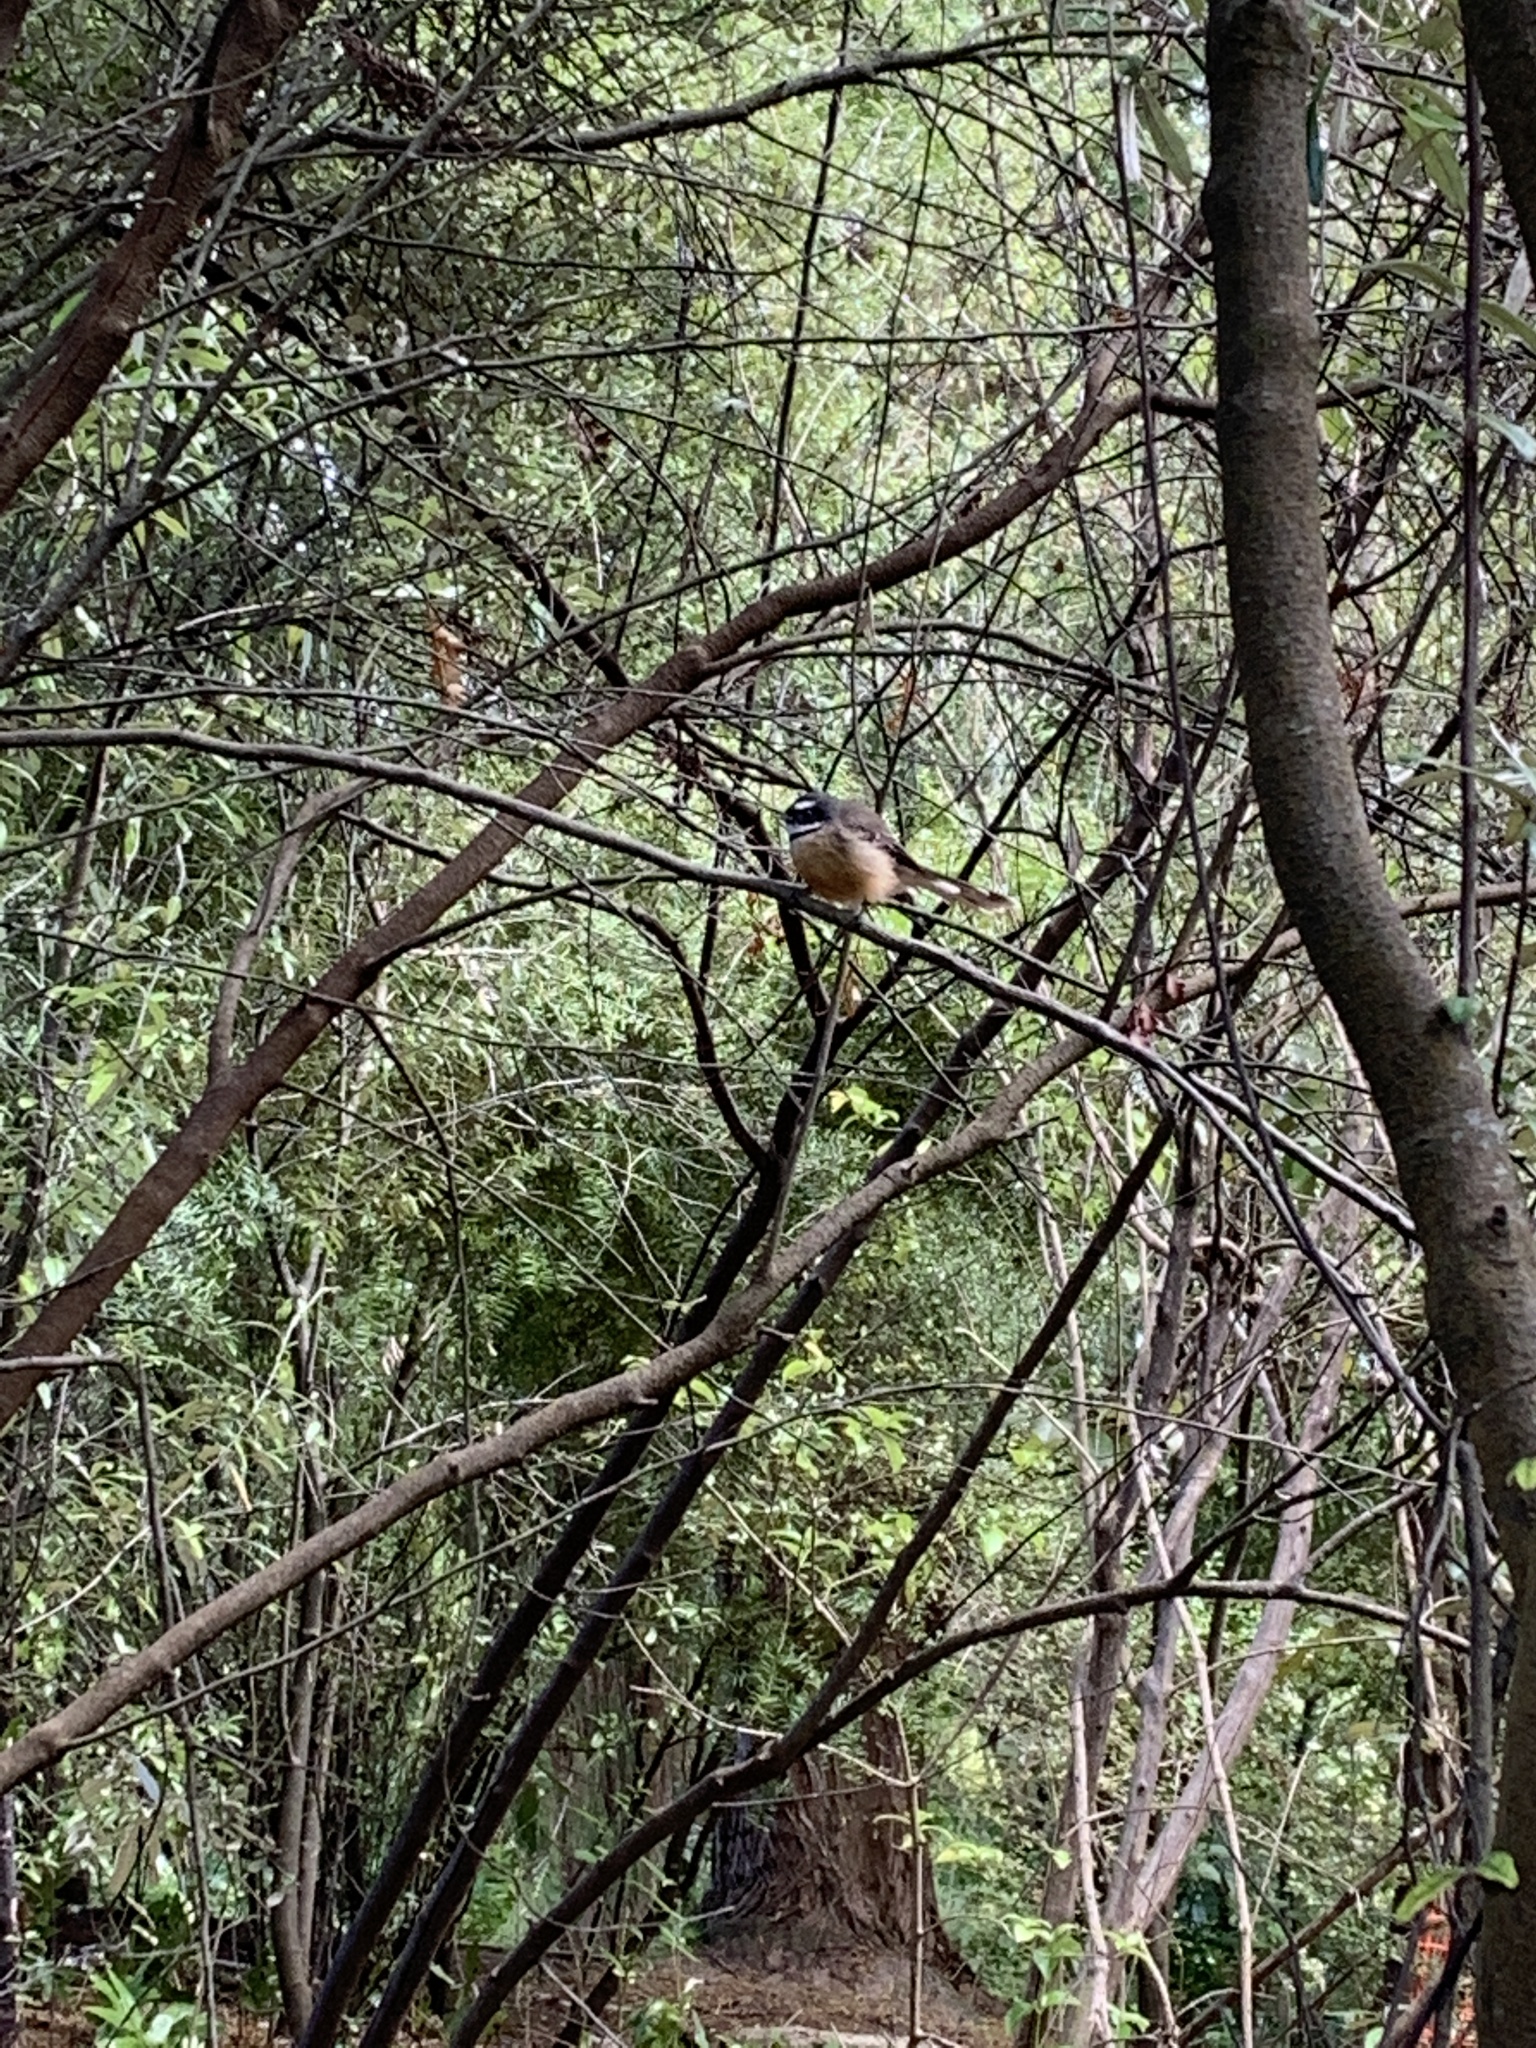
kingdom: Animalia
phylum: Chordata
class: Aves
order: Passeriformes
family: Rhipiduridae
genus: Rhipidura
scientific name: Rhipidura fuliginosa
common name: New zealand fantail
